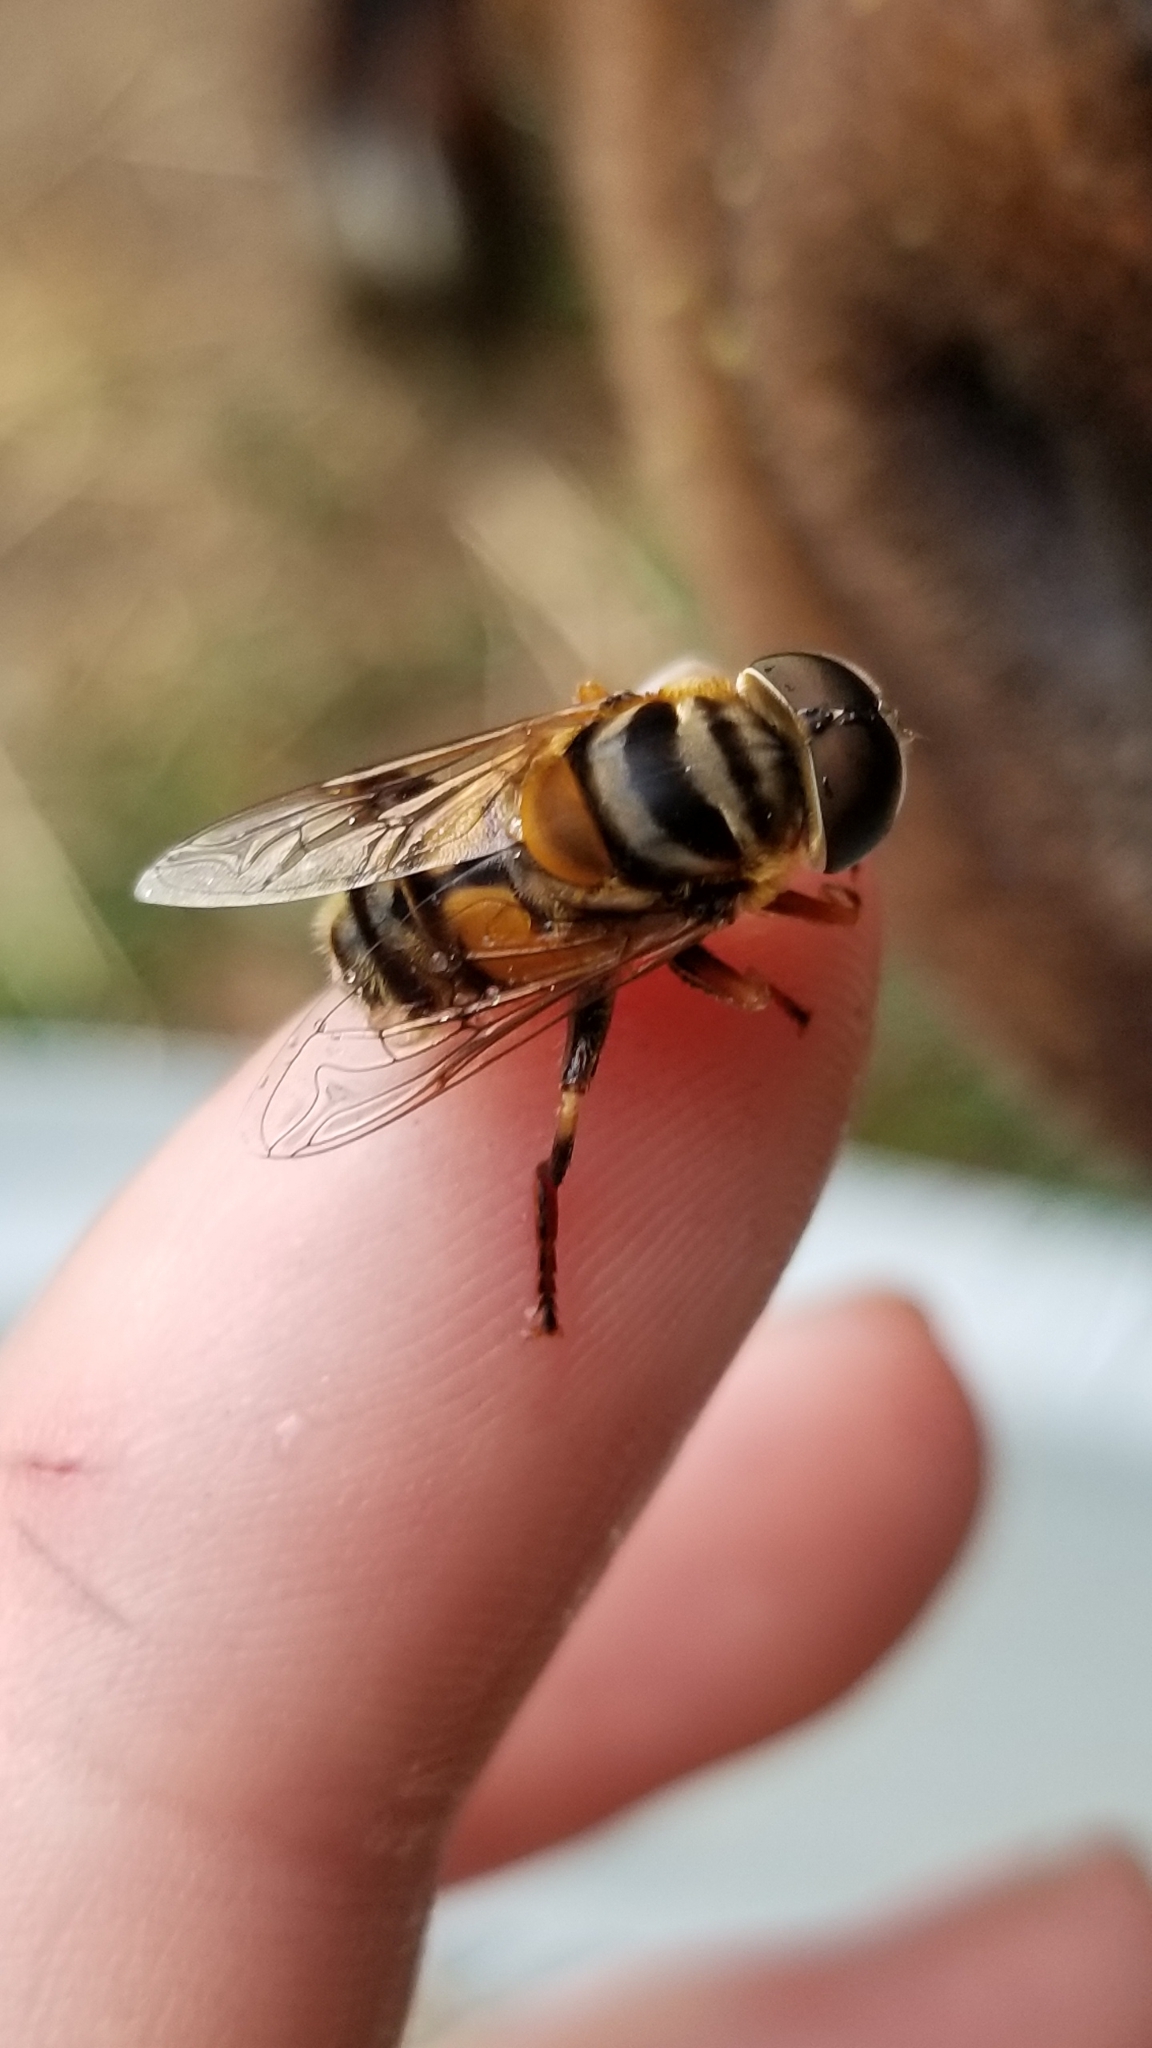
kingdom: Animalia
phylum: Arthropoda
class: Insecta
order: Diptera
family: Syrphidae
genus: Palpada
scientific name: Palpada vinetorum
